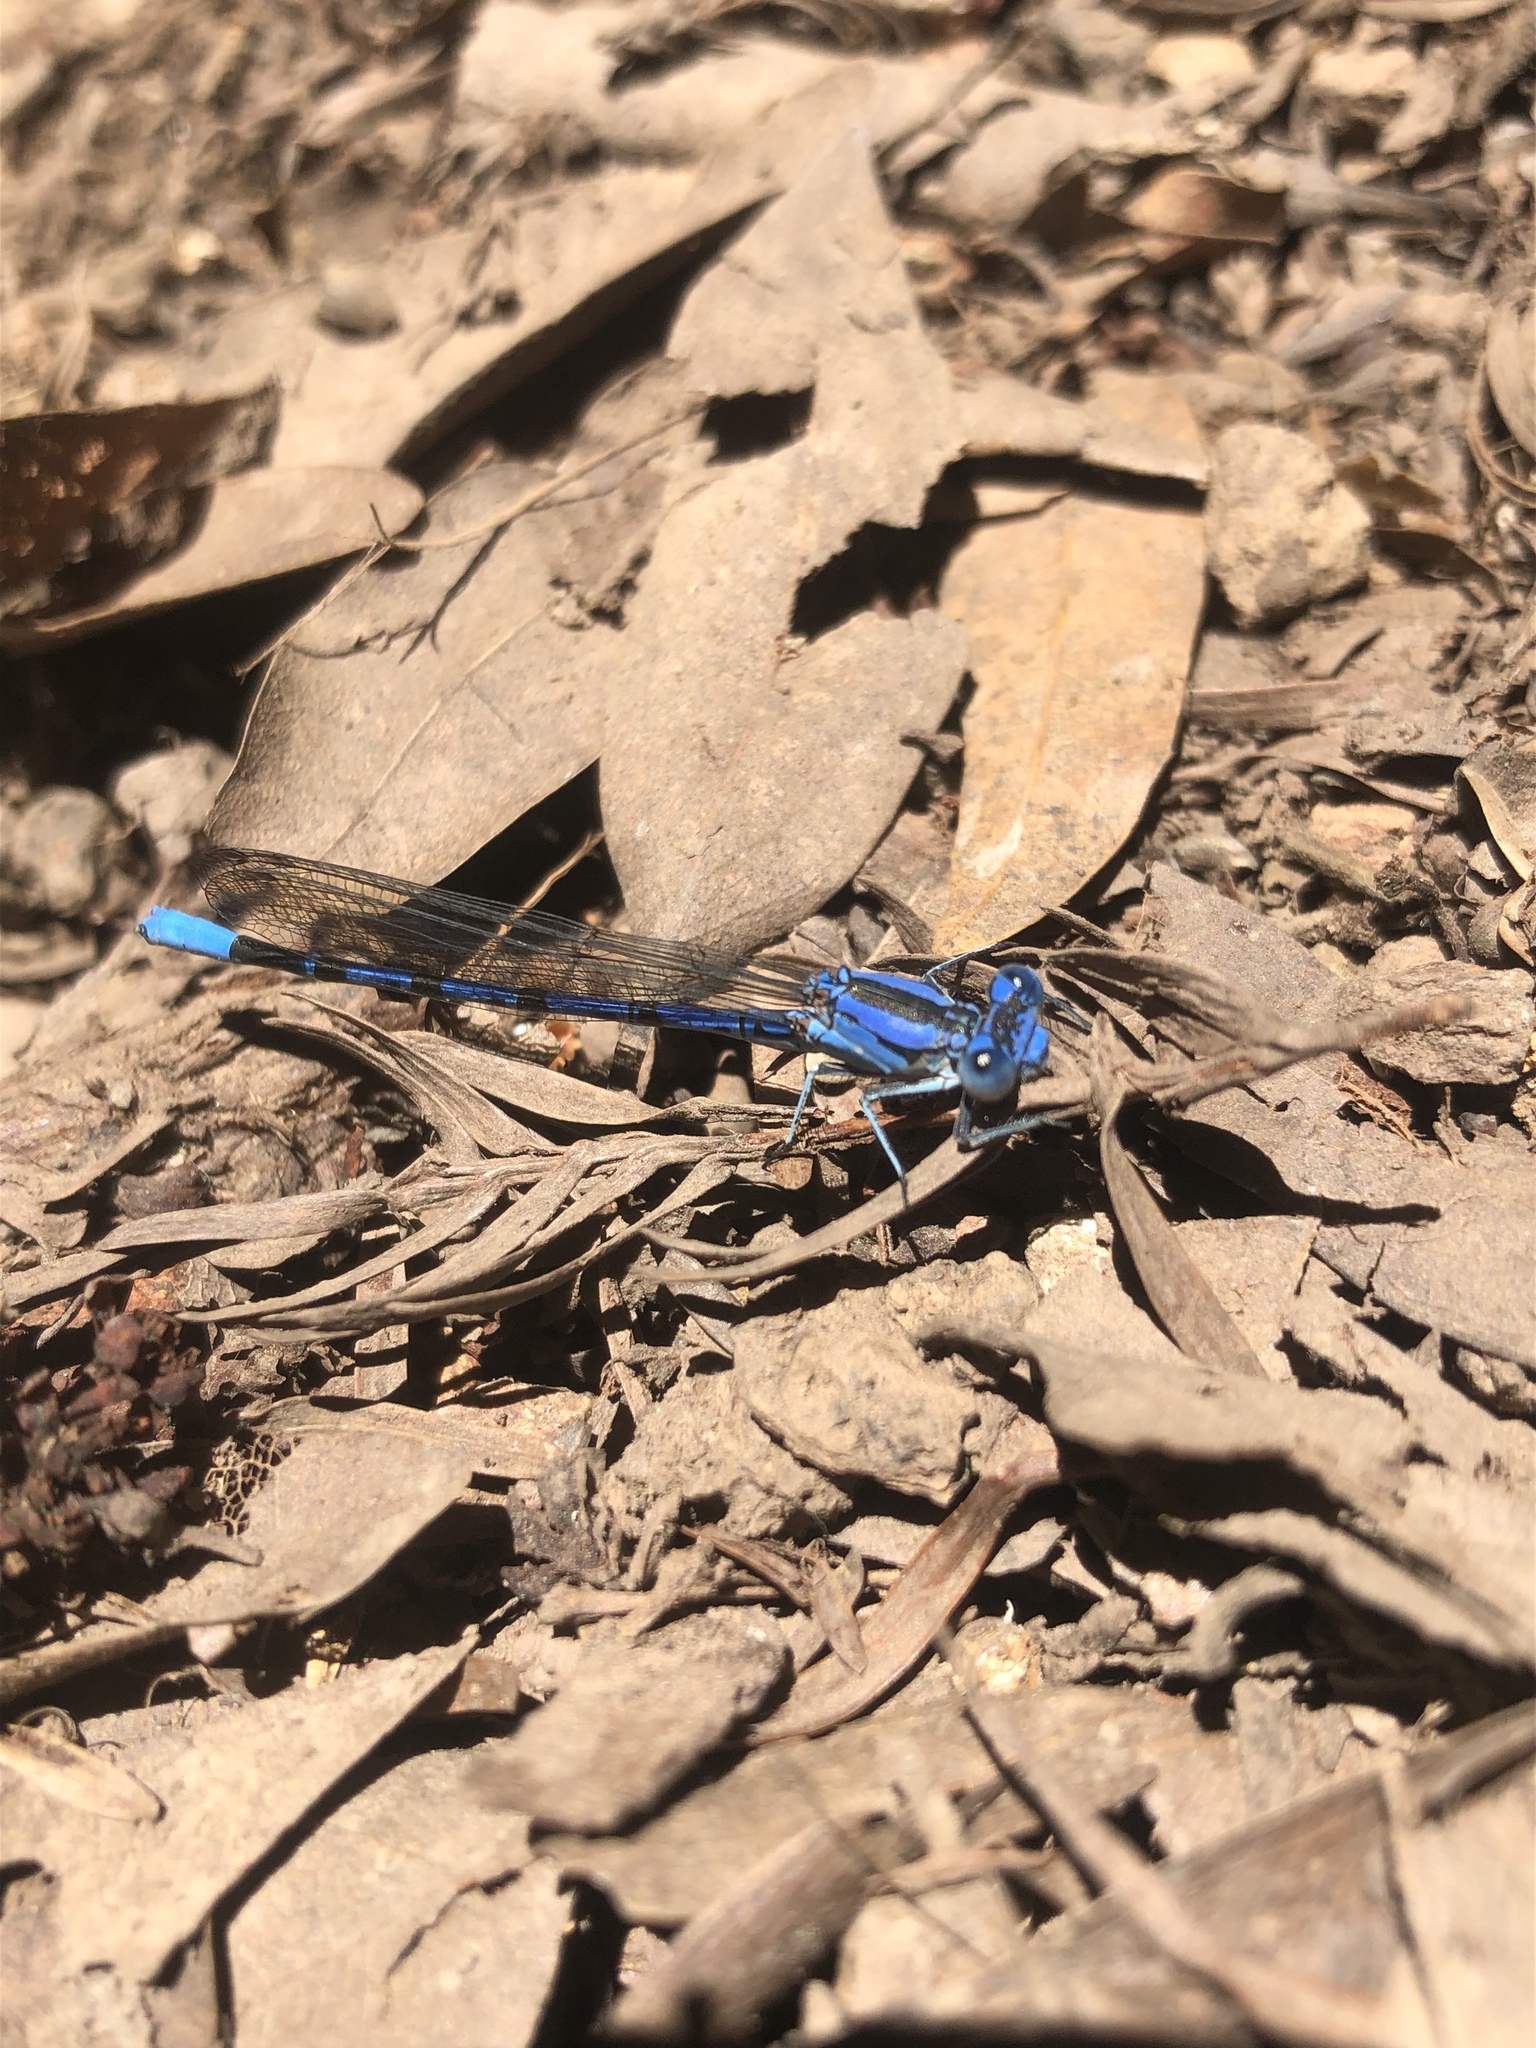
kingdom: Animalia
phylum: Arthropoda
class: Insecta
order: Odonata
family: Coenagrionidae
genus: Argia
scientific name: Argia vivida
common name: Vivid dancer
